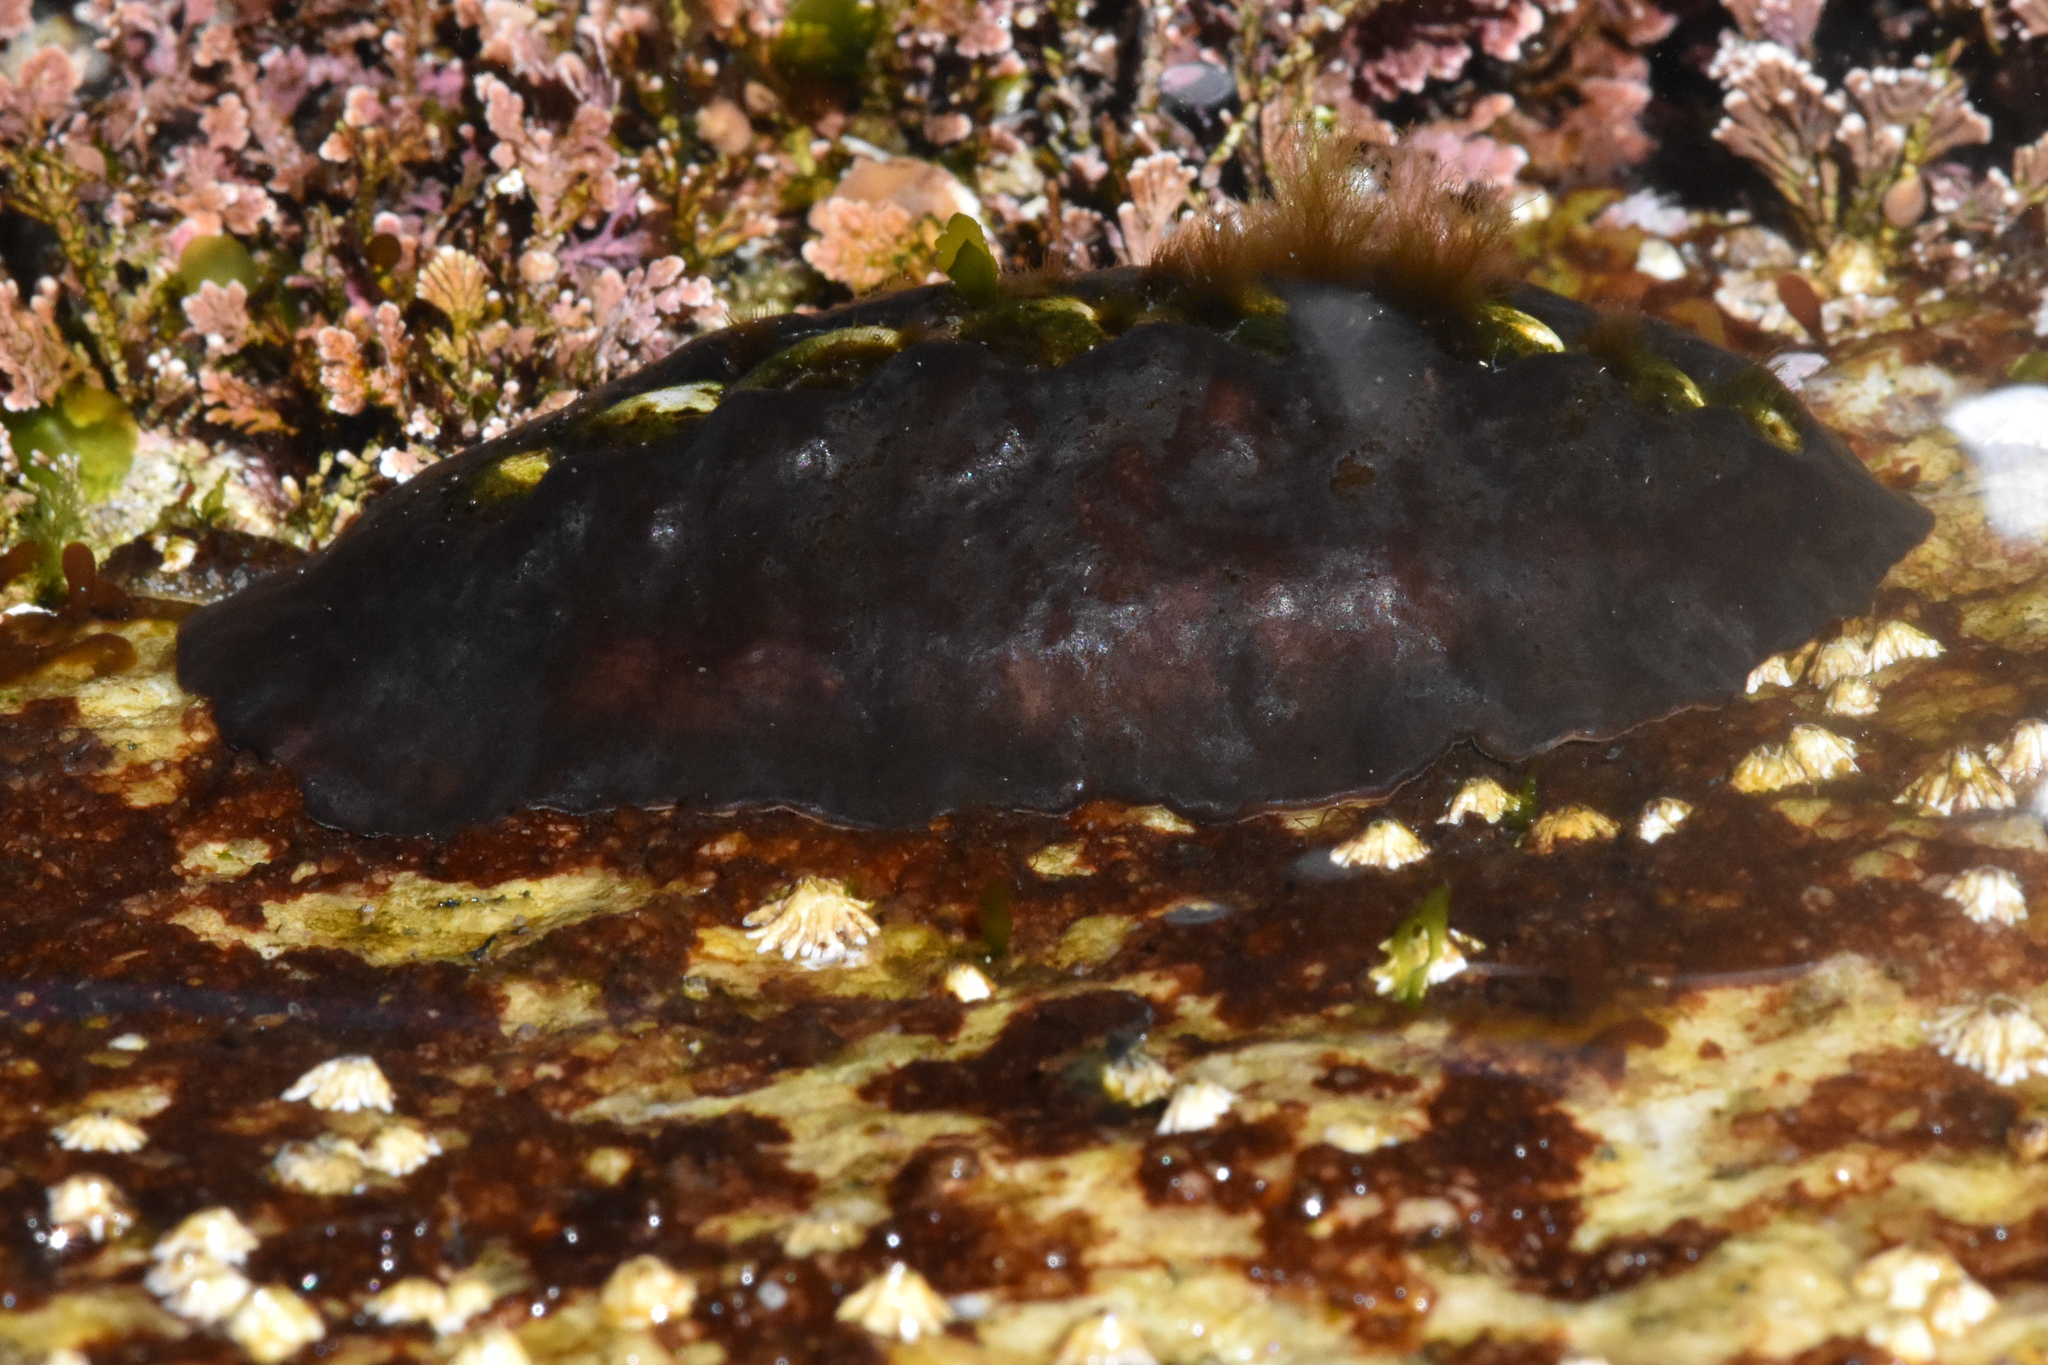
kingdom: Animalia
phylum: Mollusca
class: Polyplacophora
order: Chitonida
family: Mopaliidae
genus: Katharina
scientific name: Katharina tunicata
